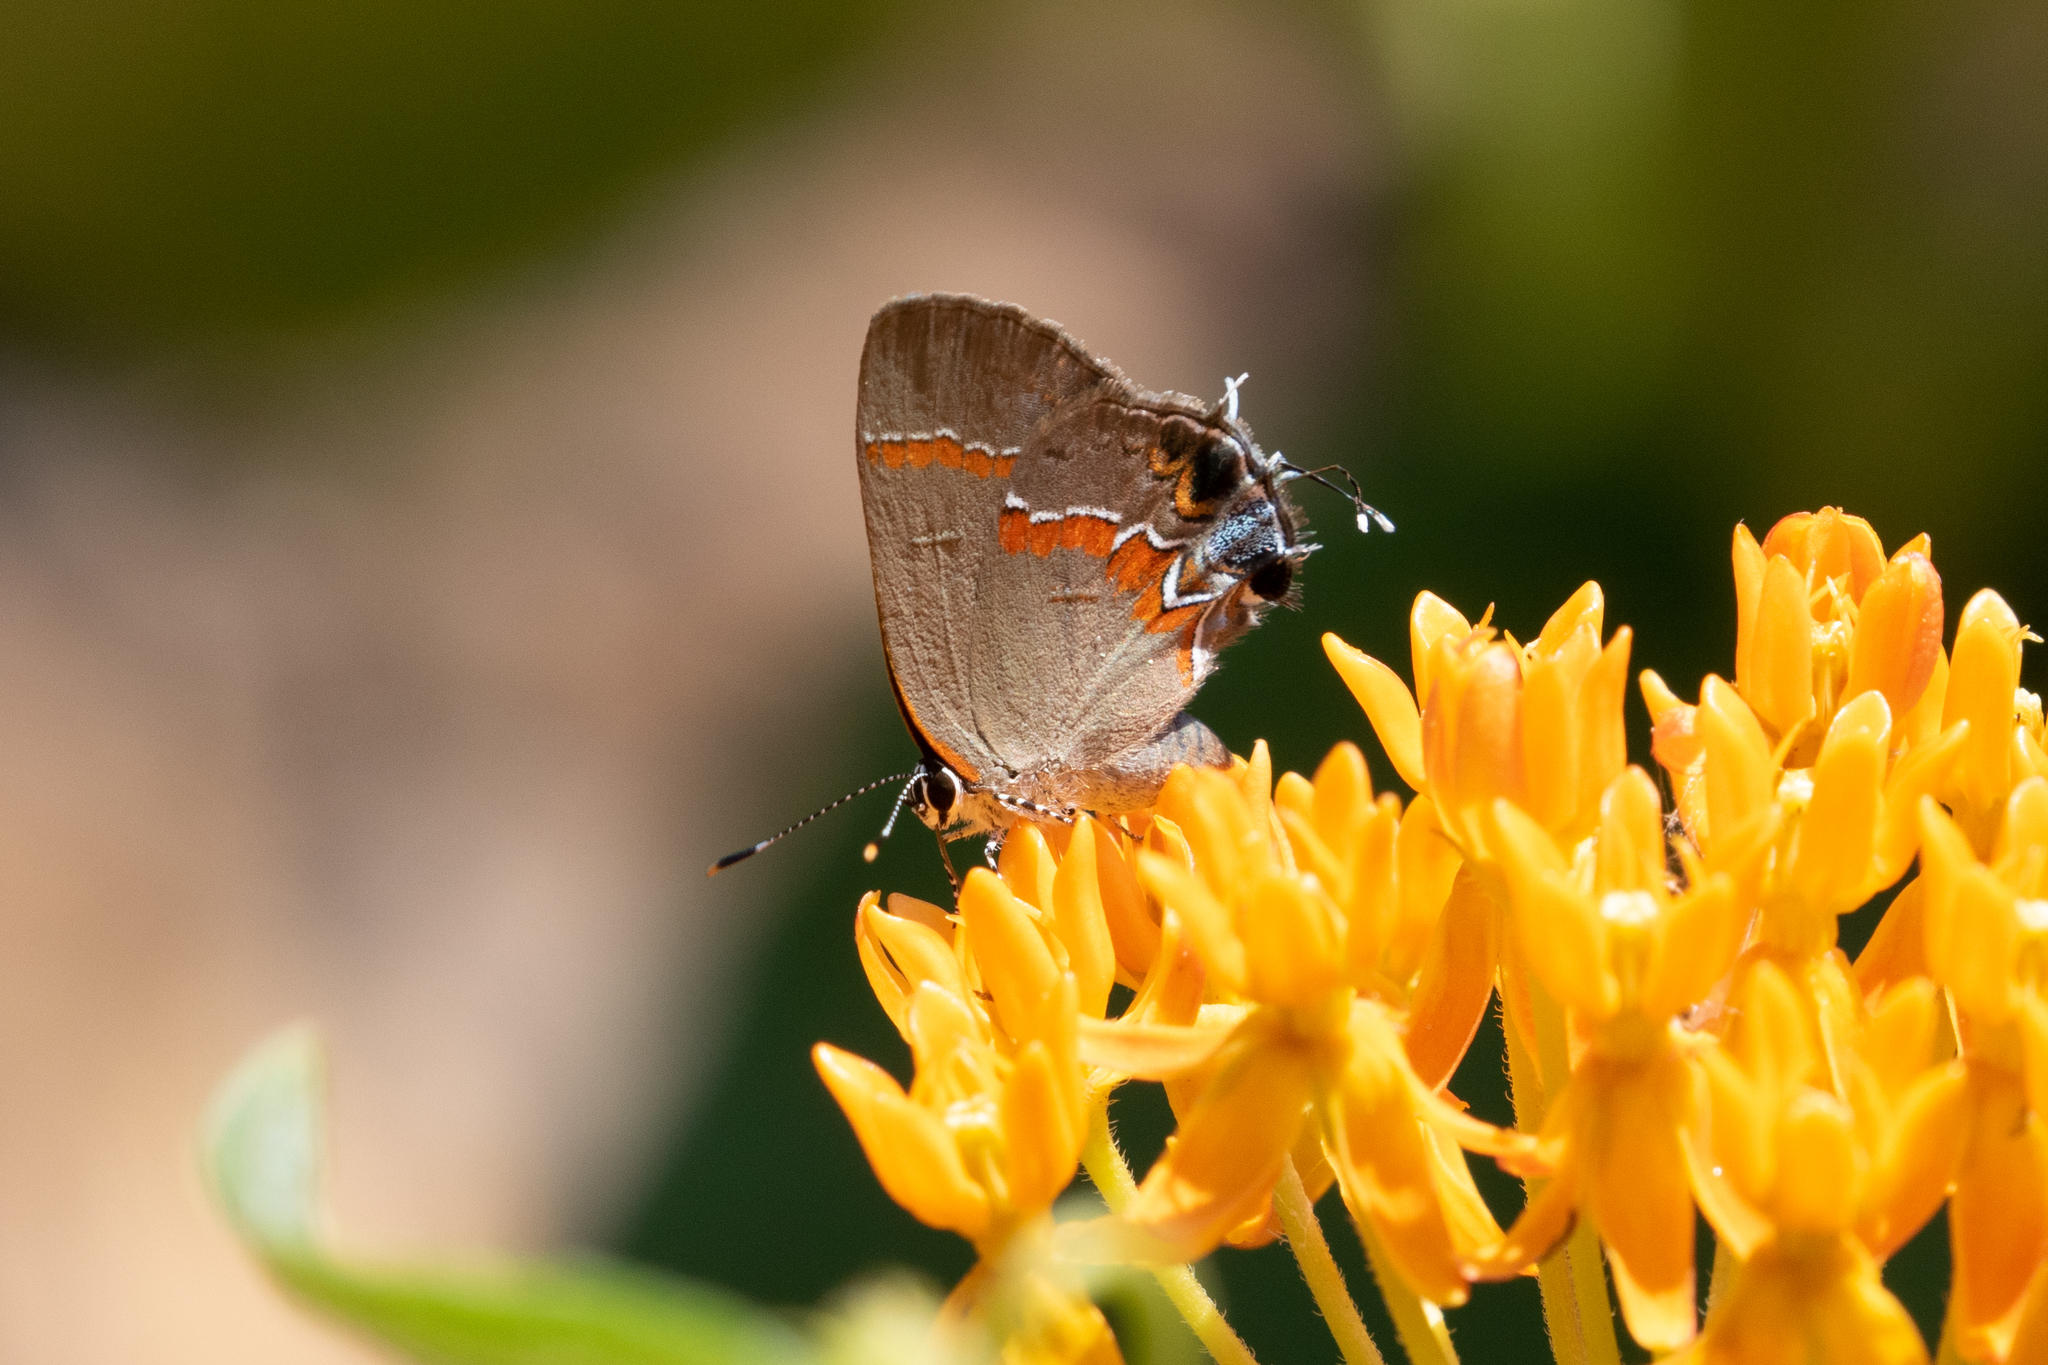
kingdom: Animalia
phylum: Arthropoda
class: Insecta
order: Lepidoptera
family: Lycaenidae
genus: Calycopis
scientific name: Calycopis cecrops
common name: Red-banded hairstreak
